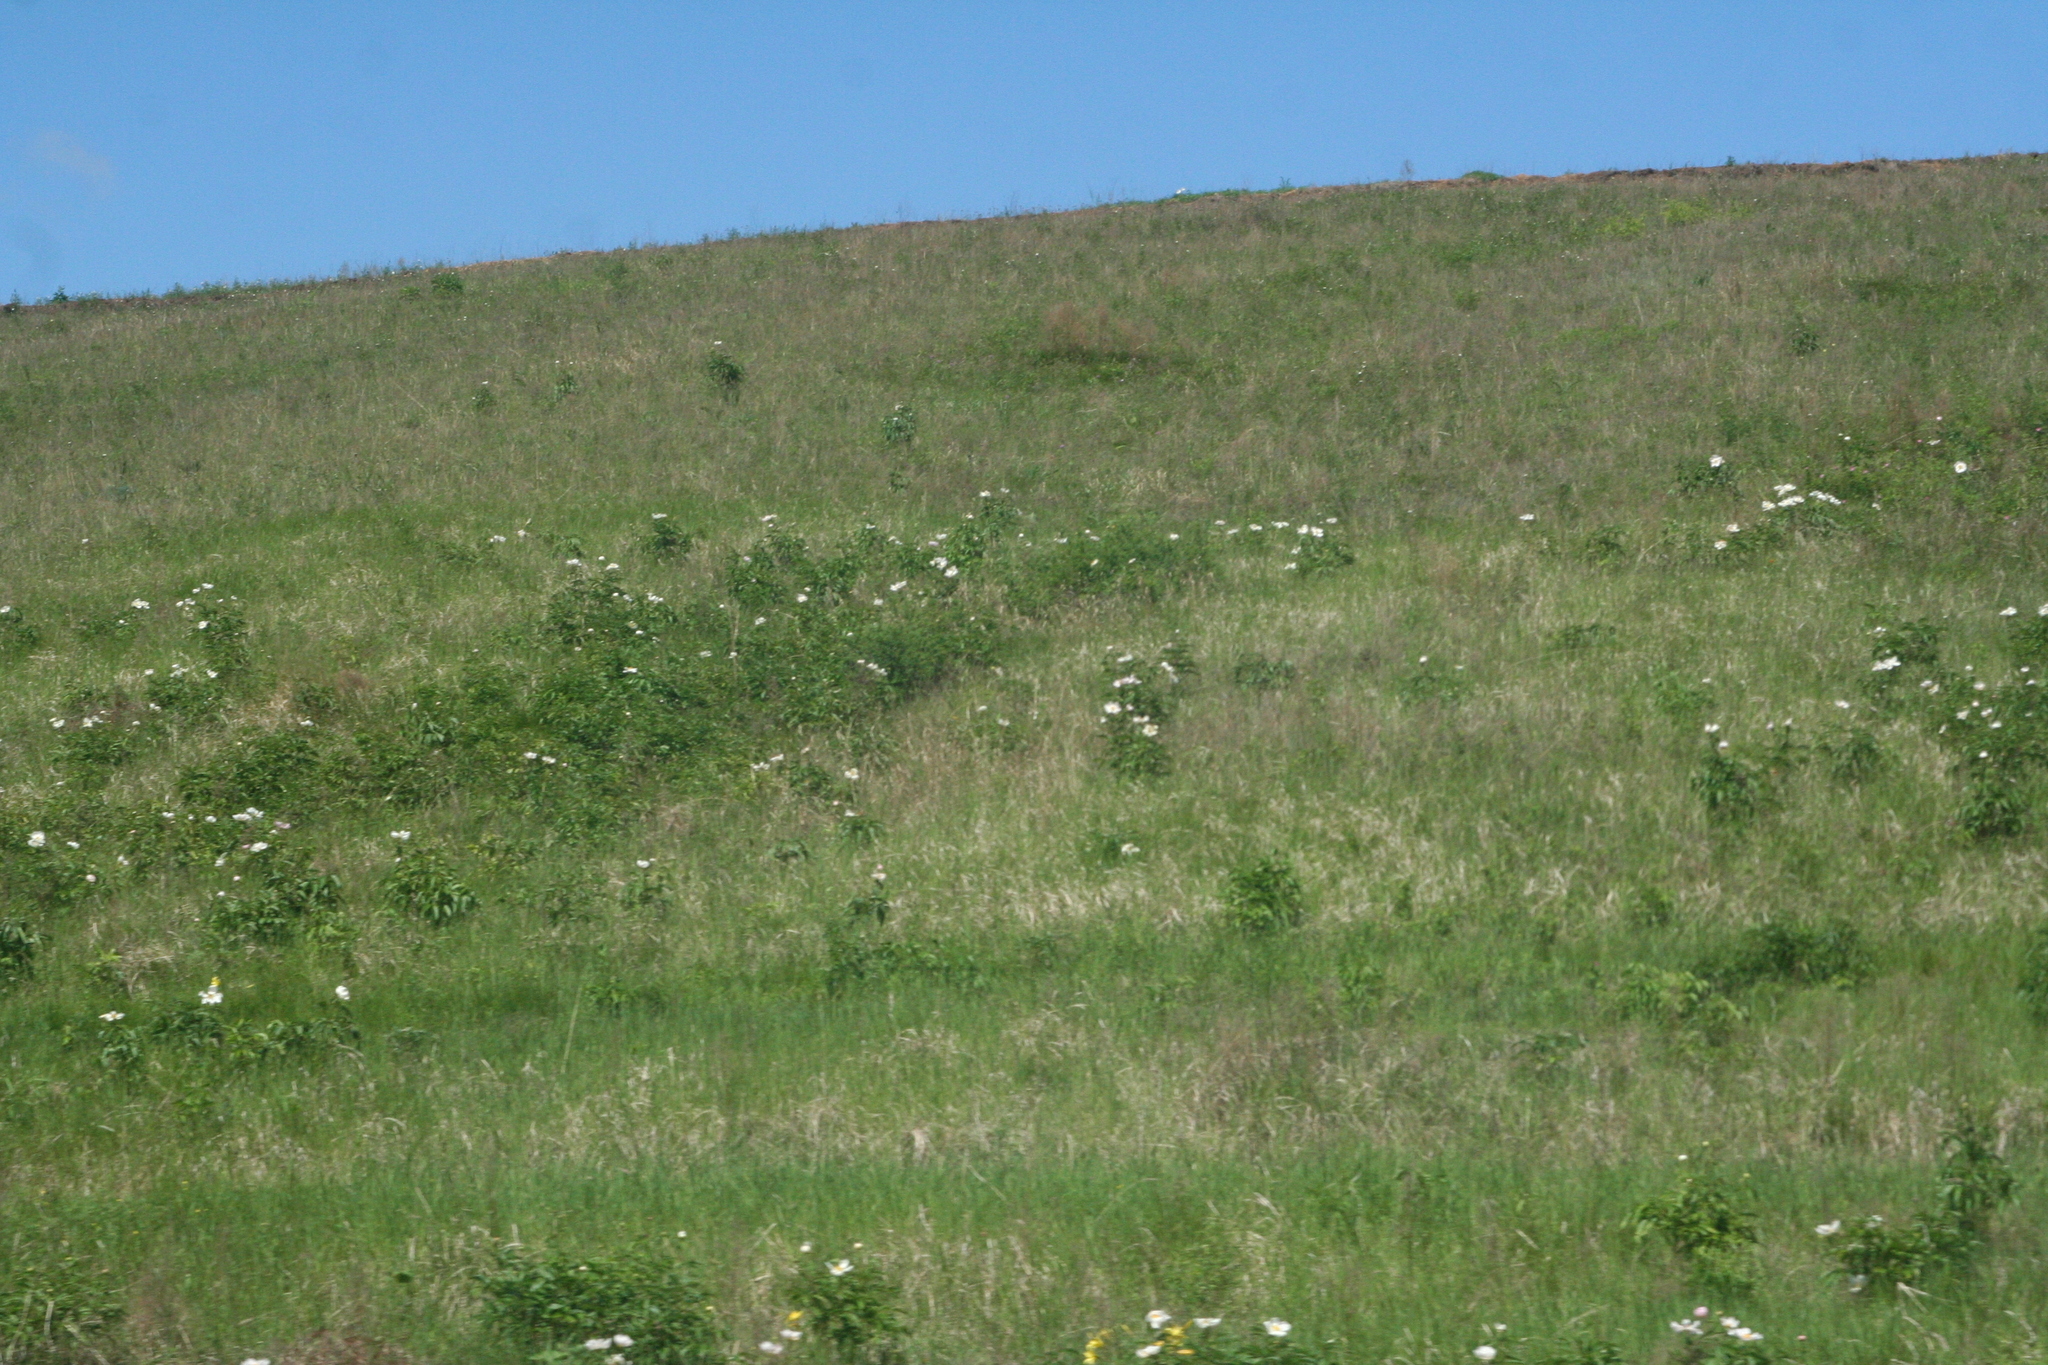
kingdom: Plantae
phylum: Tracheophyta
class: Magnoliopsida
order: Saxifragales
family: Paeoniaceae
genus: Paeonia
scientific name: Paeonia lactiflora
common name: Chinese peony
